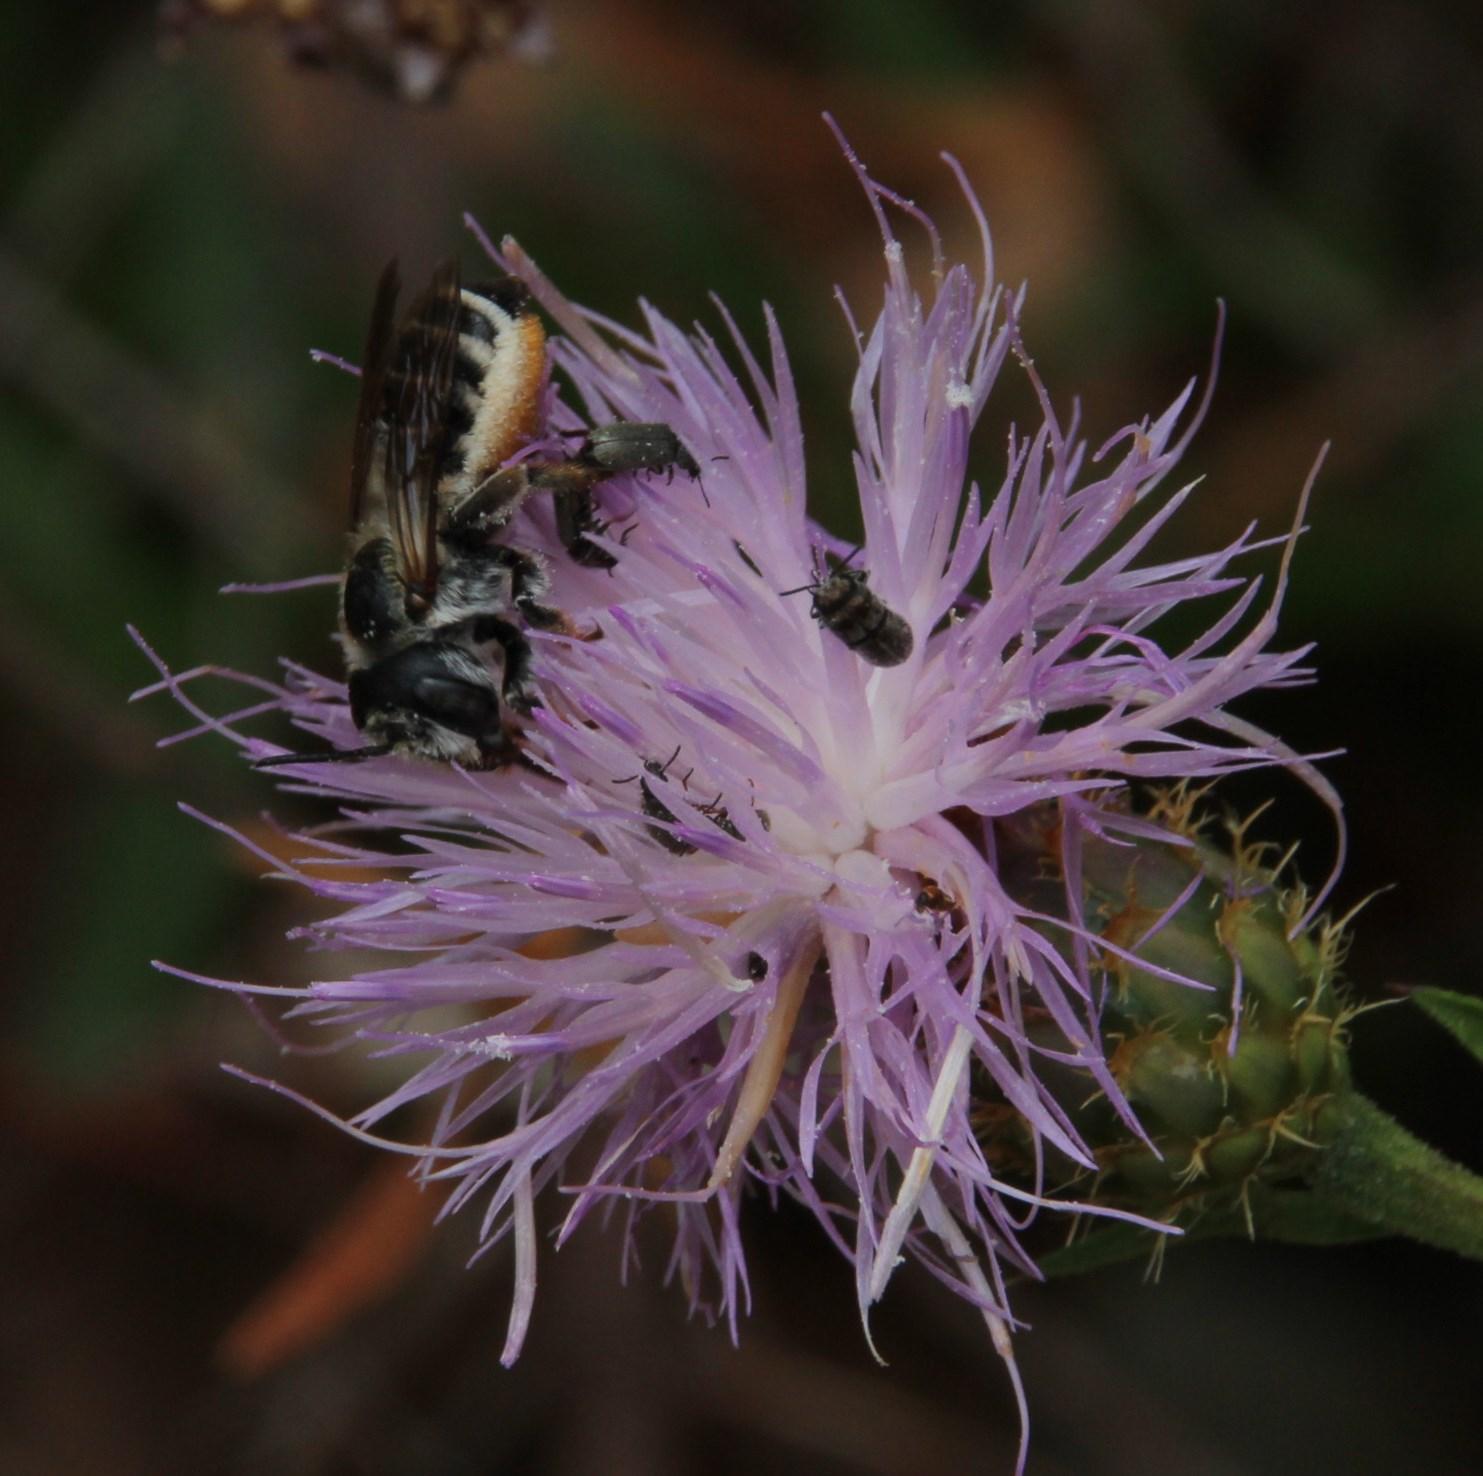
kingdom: Plantae
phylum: Tracheophyta
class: Magnoliopsida
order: Asterales
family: Asteraceae
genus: Cheirolophus
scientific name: Cheirolophus sempervirens
